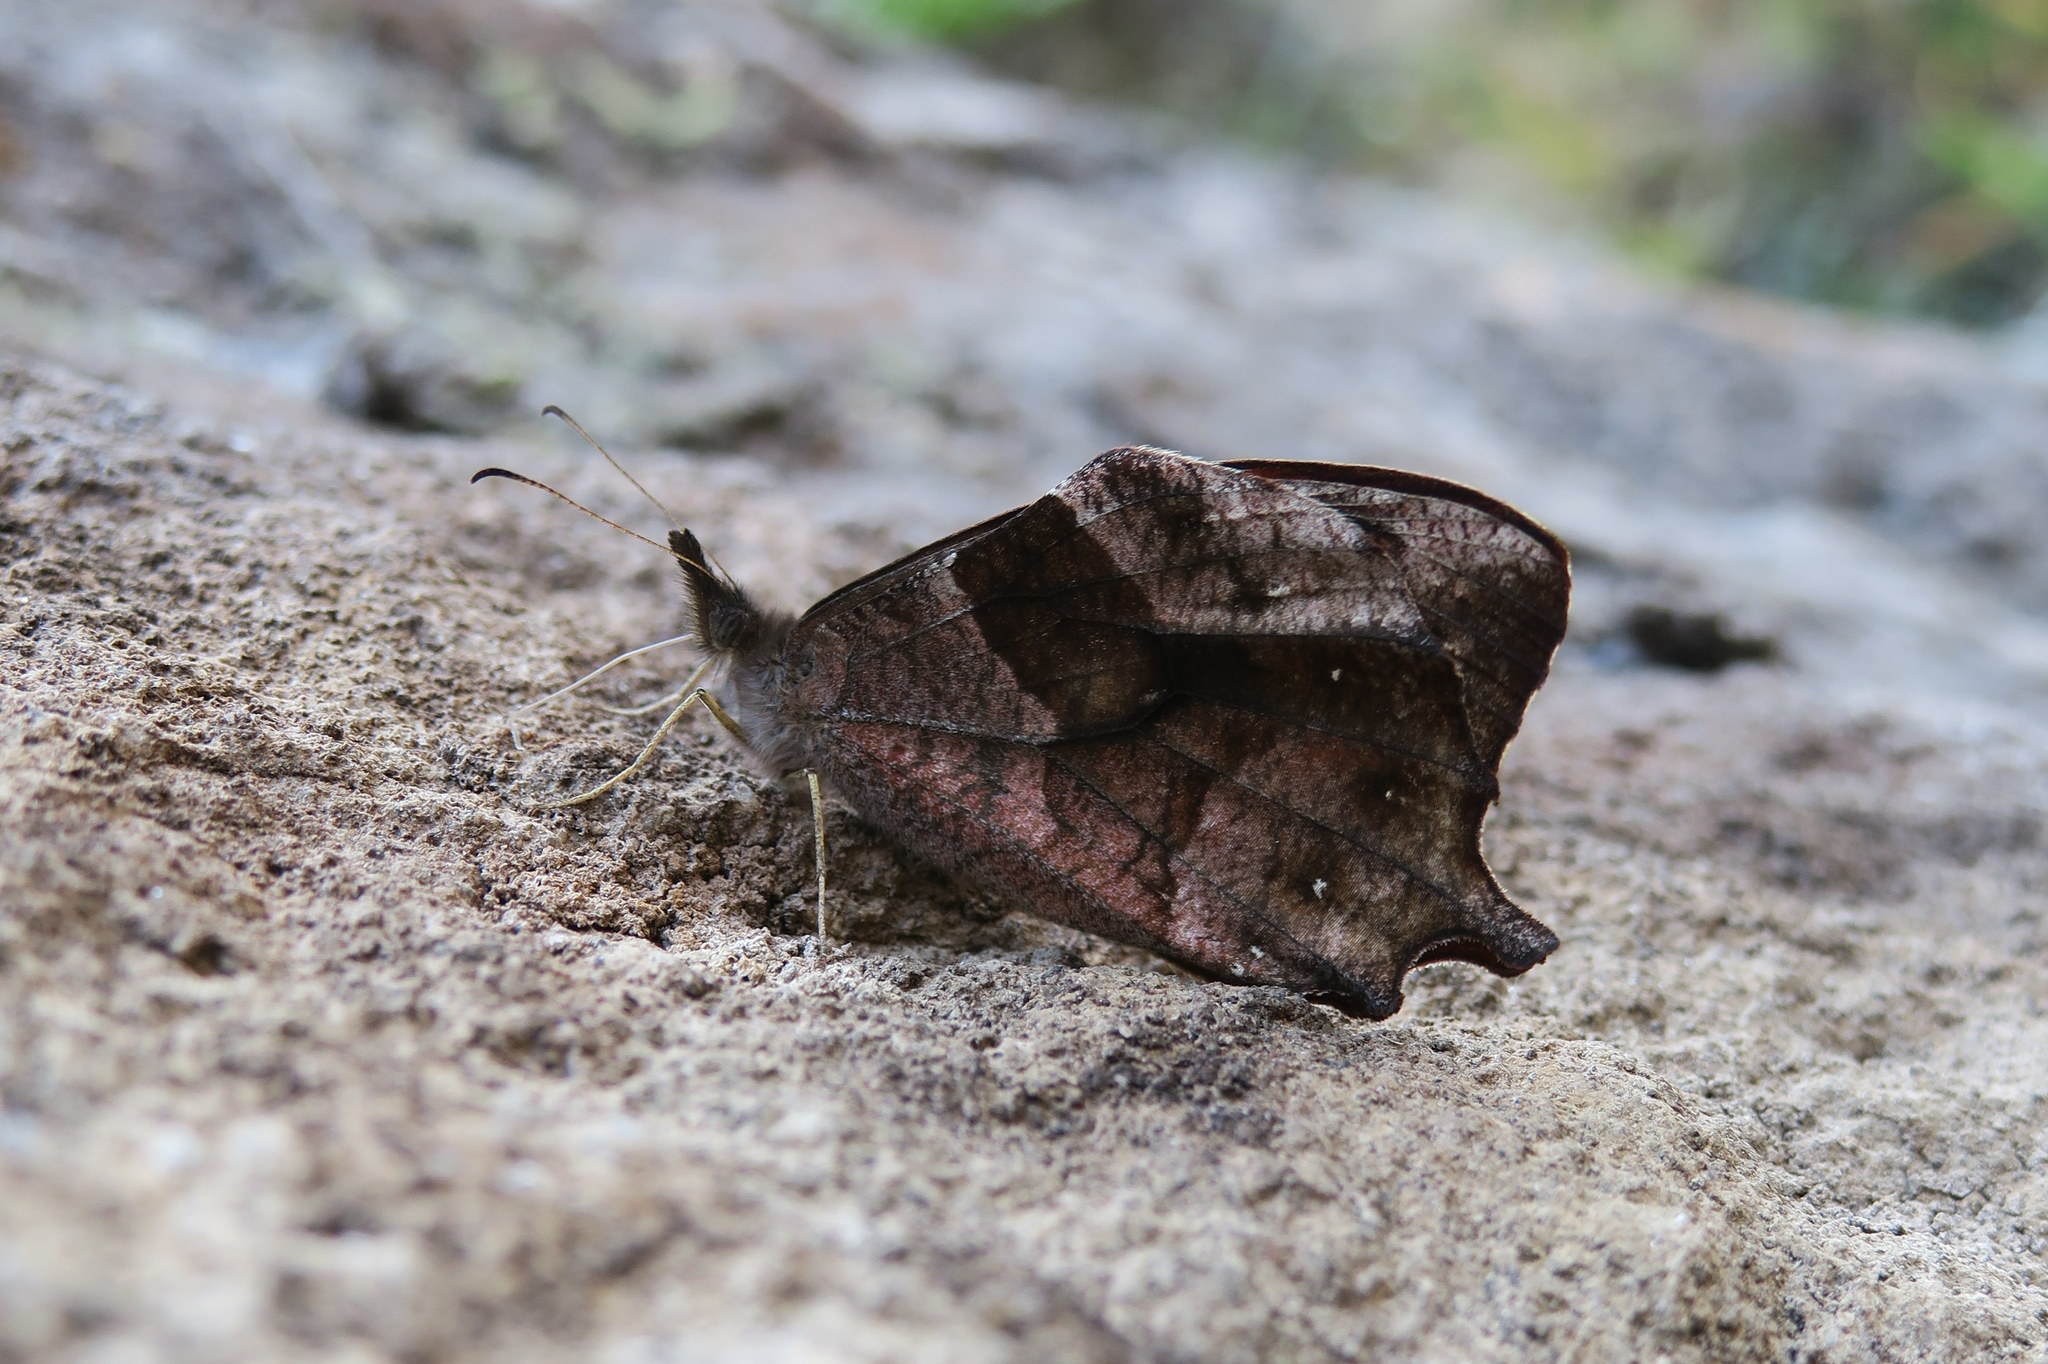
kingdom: Animalia
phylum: Arthropoda
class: Insecta
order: Lepidoptera
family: Nymphalidae
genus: Lasiophila
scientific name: Lasiophila palades
